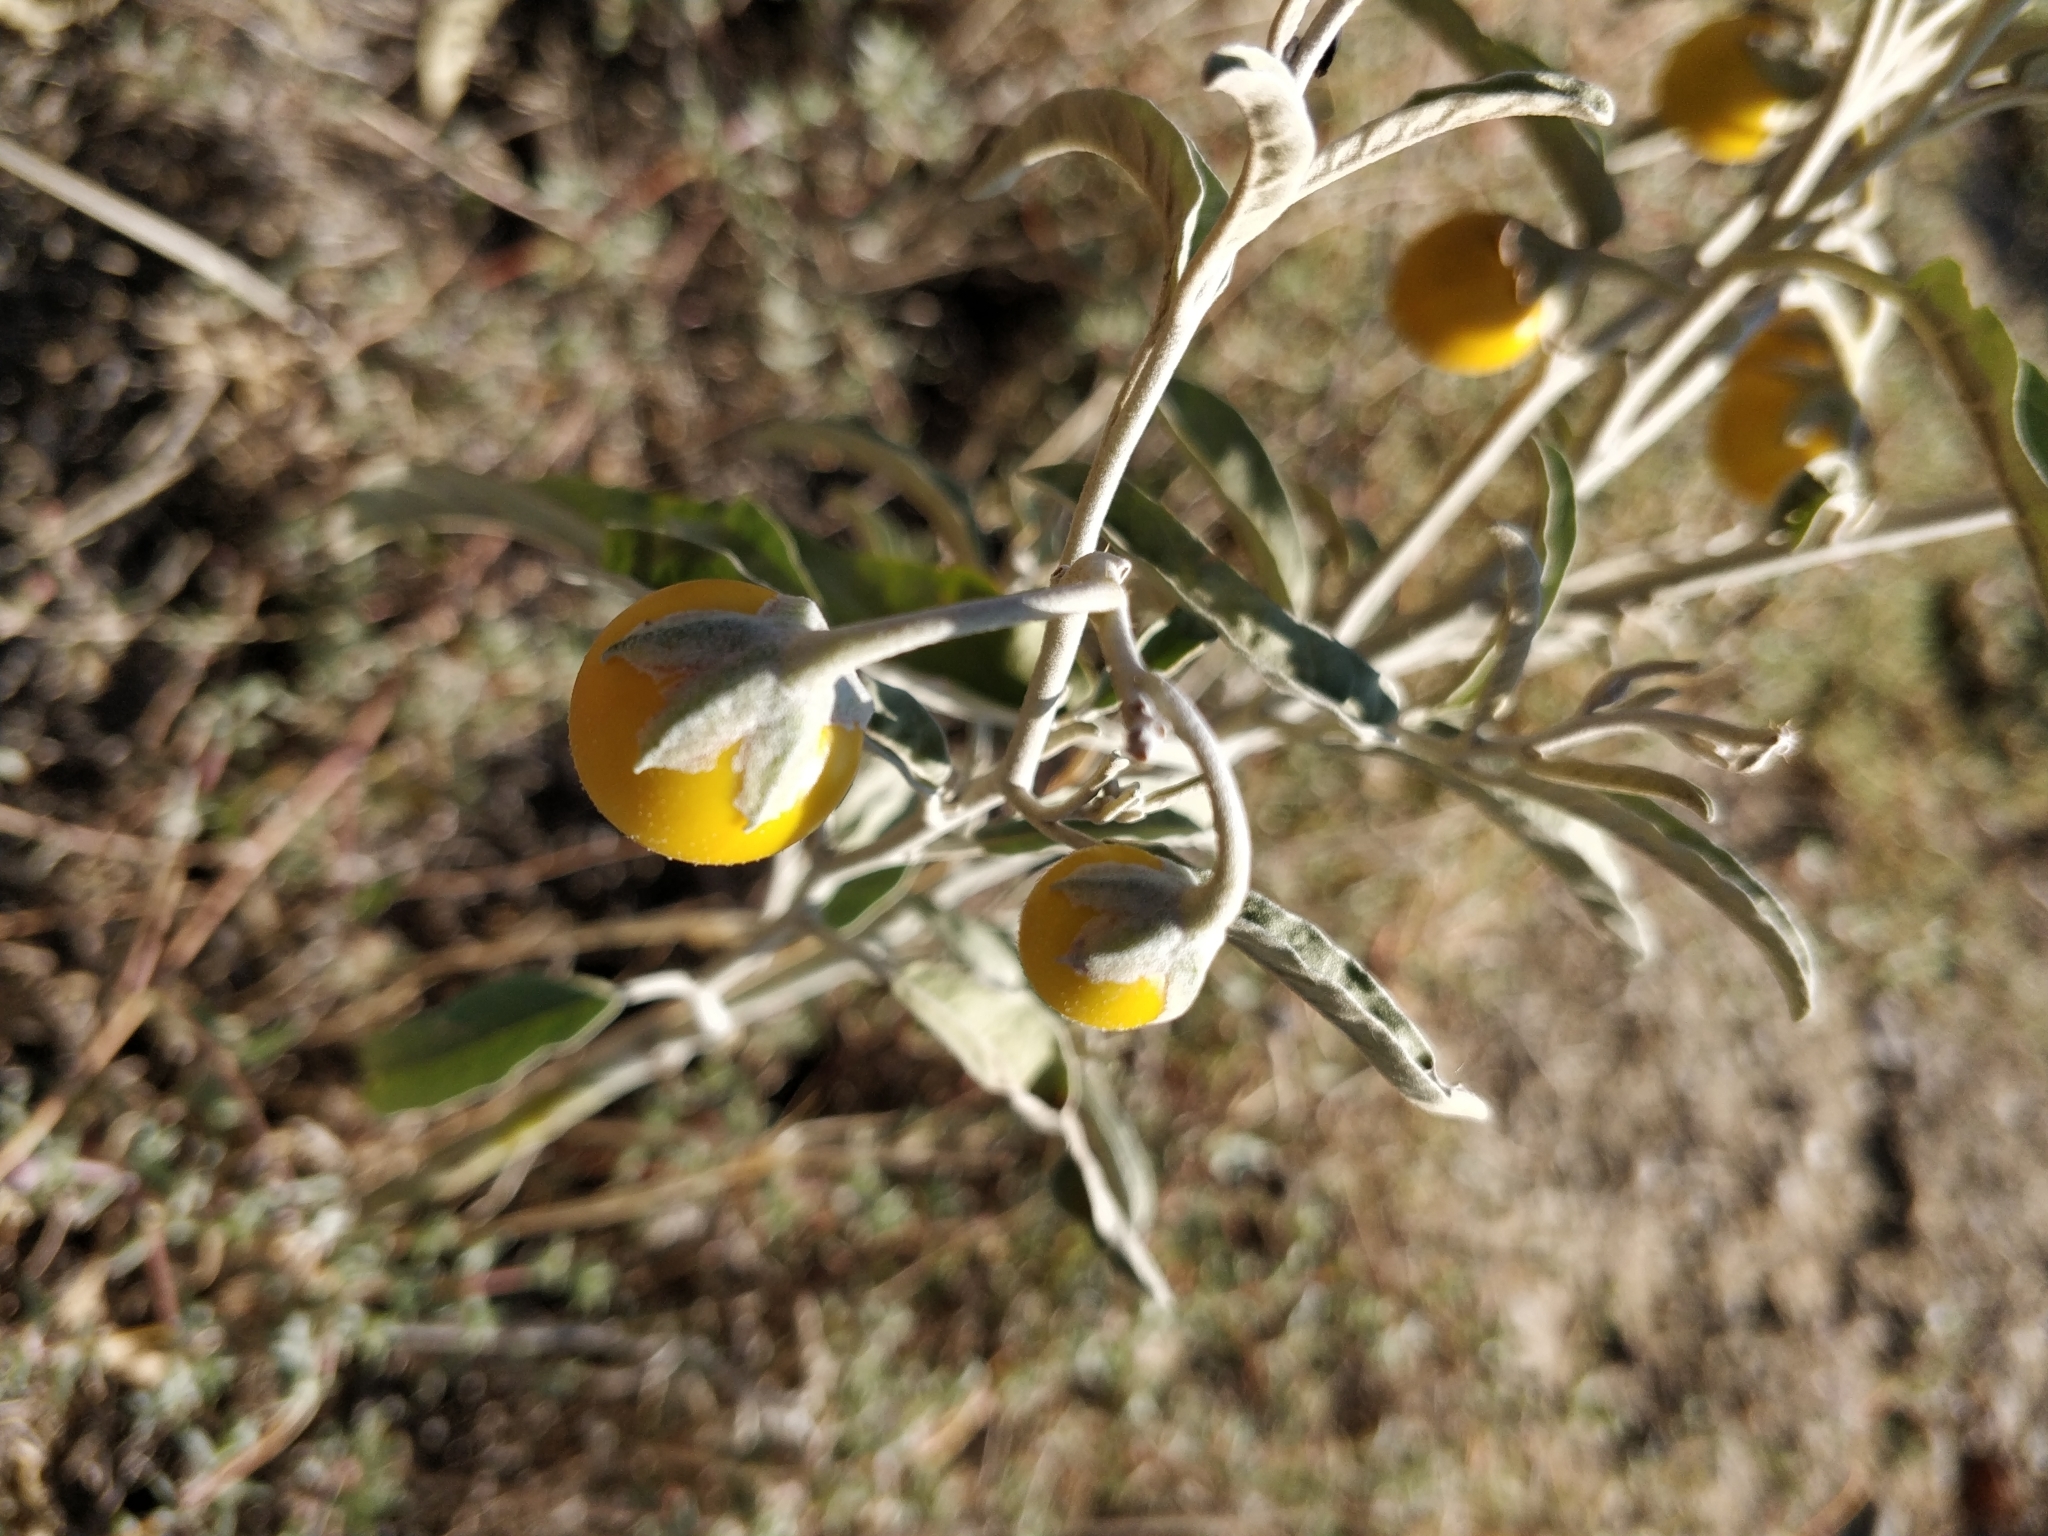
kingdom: Plantae
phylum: Tracheophyta
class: Magnoliopsida
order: Solanales
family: Solanaceae
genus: Solanum
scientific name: Solanum elaeagnifolium
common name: Silverleaf nightshade
